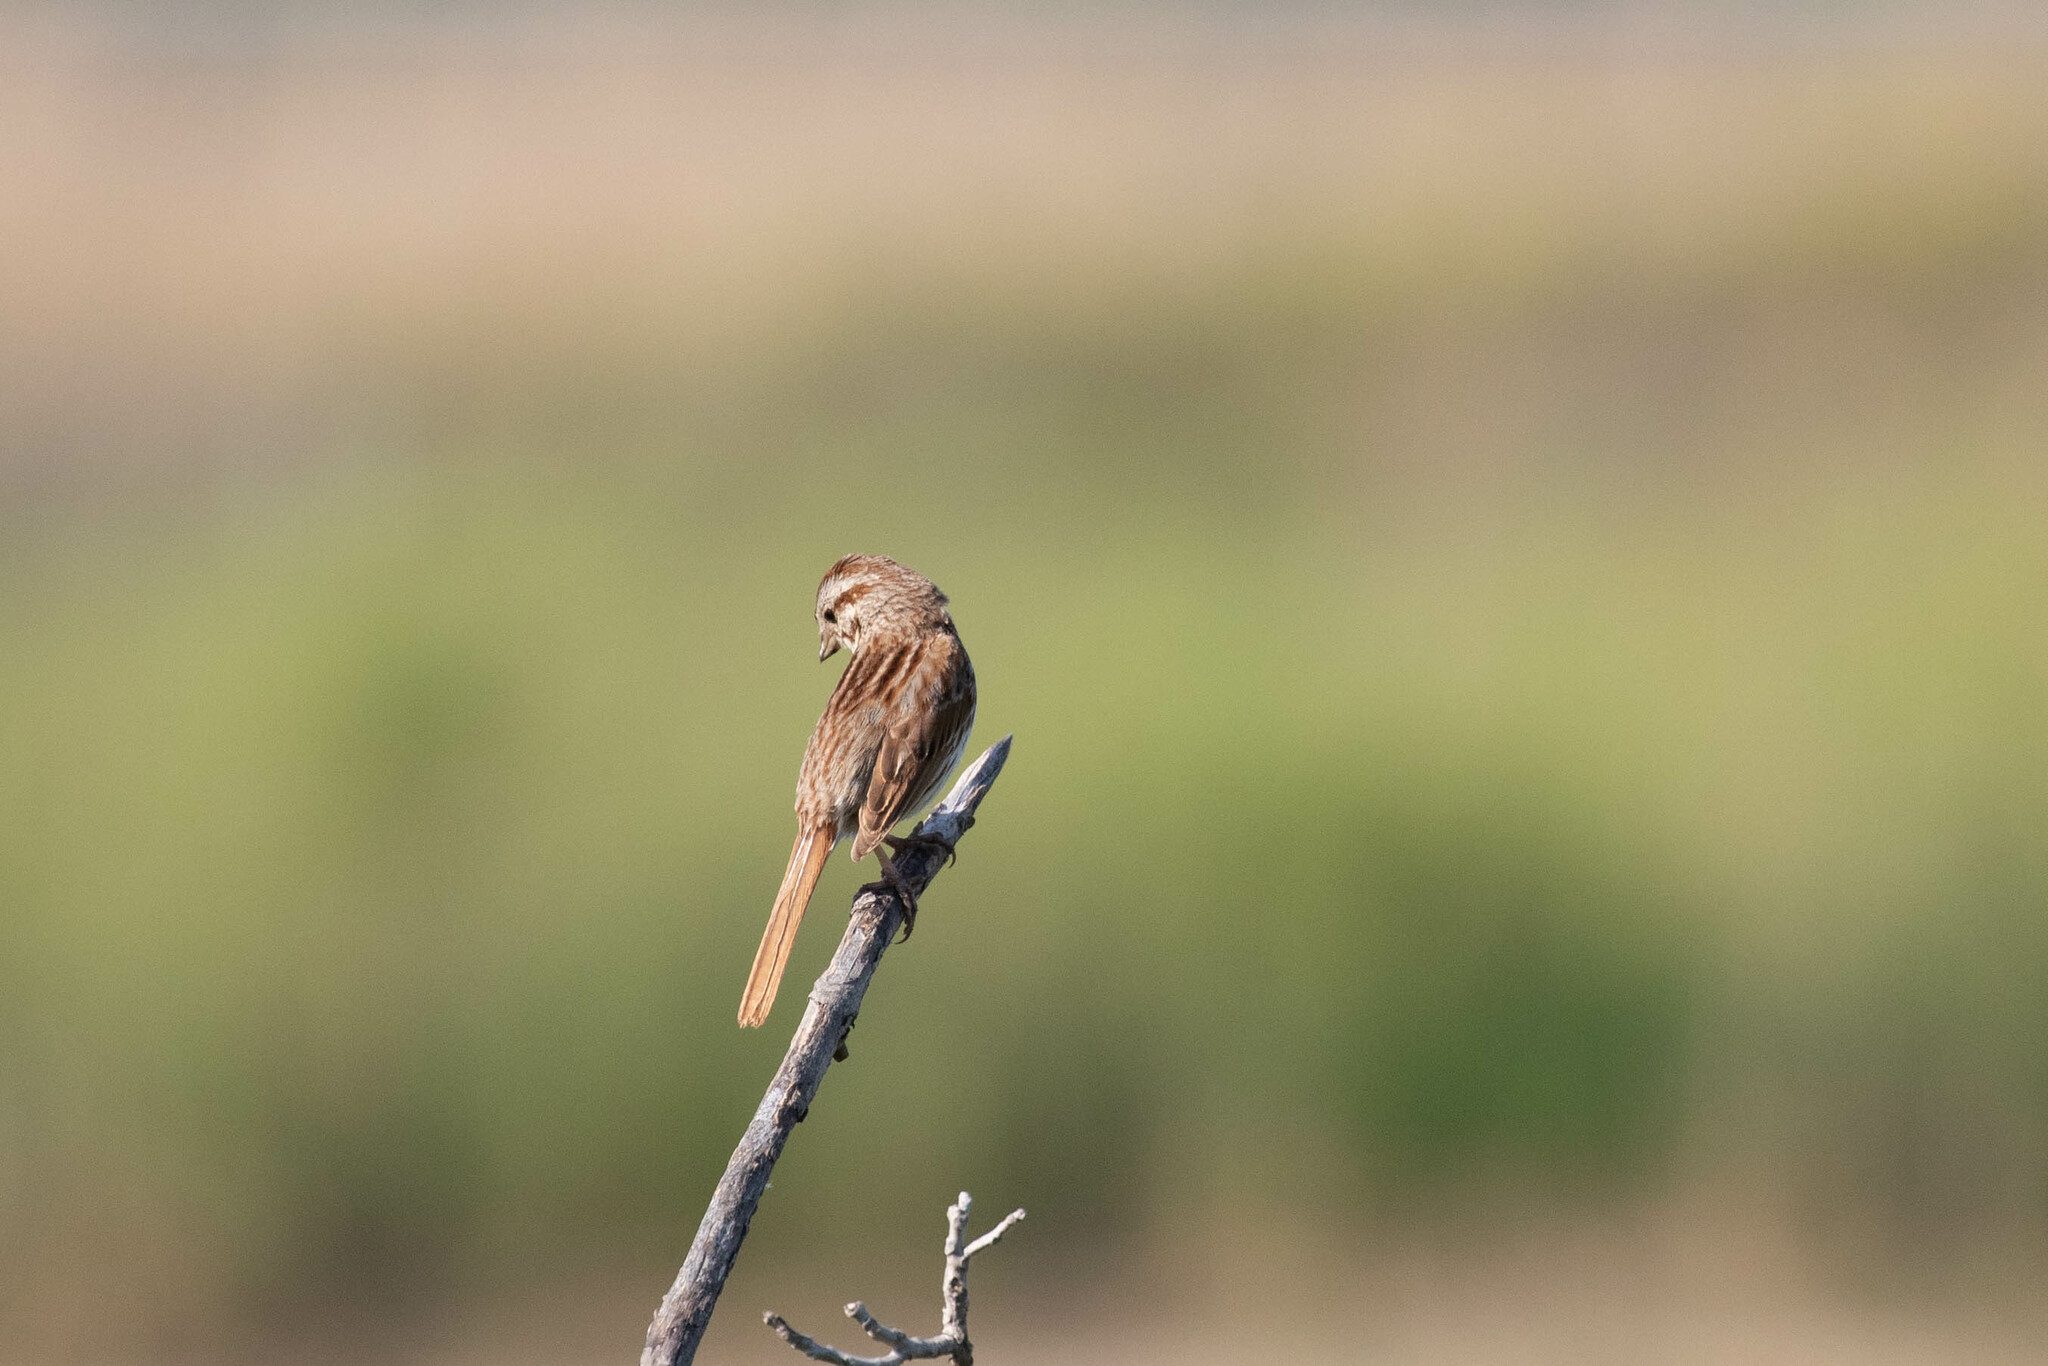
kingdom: Animalia
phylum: Chordata
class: Aves
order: Passeriformes
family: Passerellidae
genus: Melospiza
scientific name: Melospiza melodia
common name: Song sparrow
